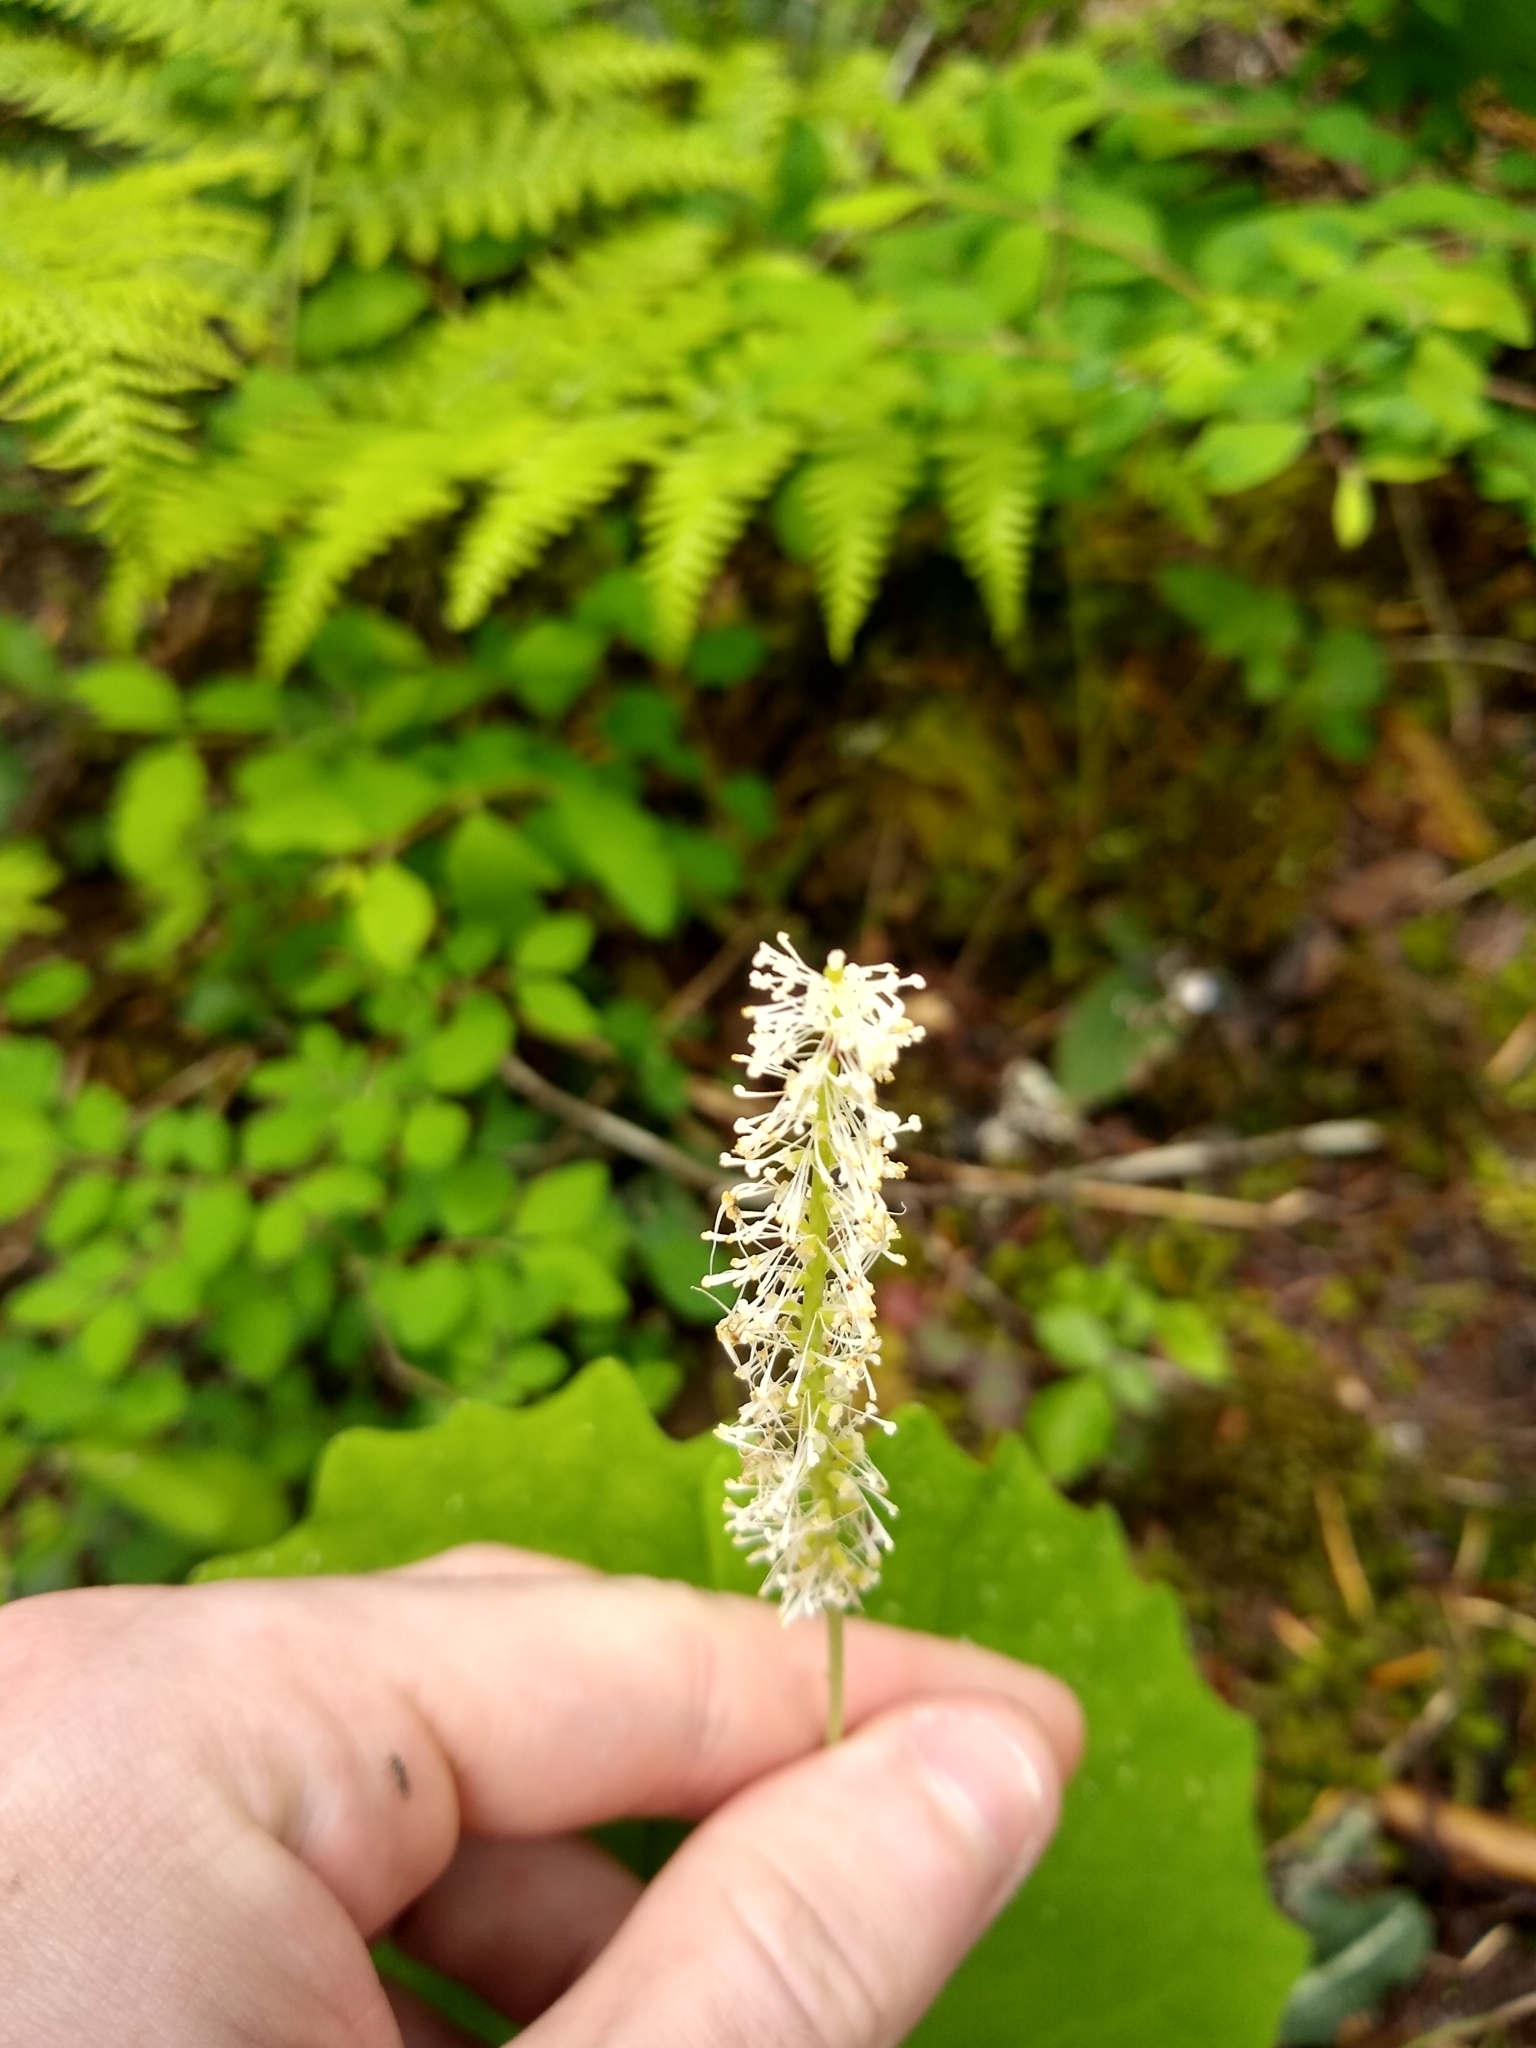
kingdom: Plantae
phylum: Tracheophyta
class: Magnoliopsida
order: Ranunculales
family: Berberidaceae
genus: Achlys
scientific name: Achlys triphylla
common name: Vanilla-leaf
